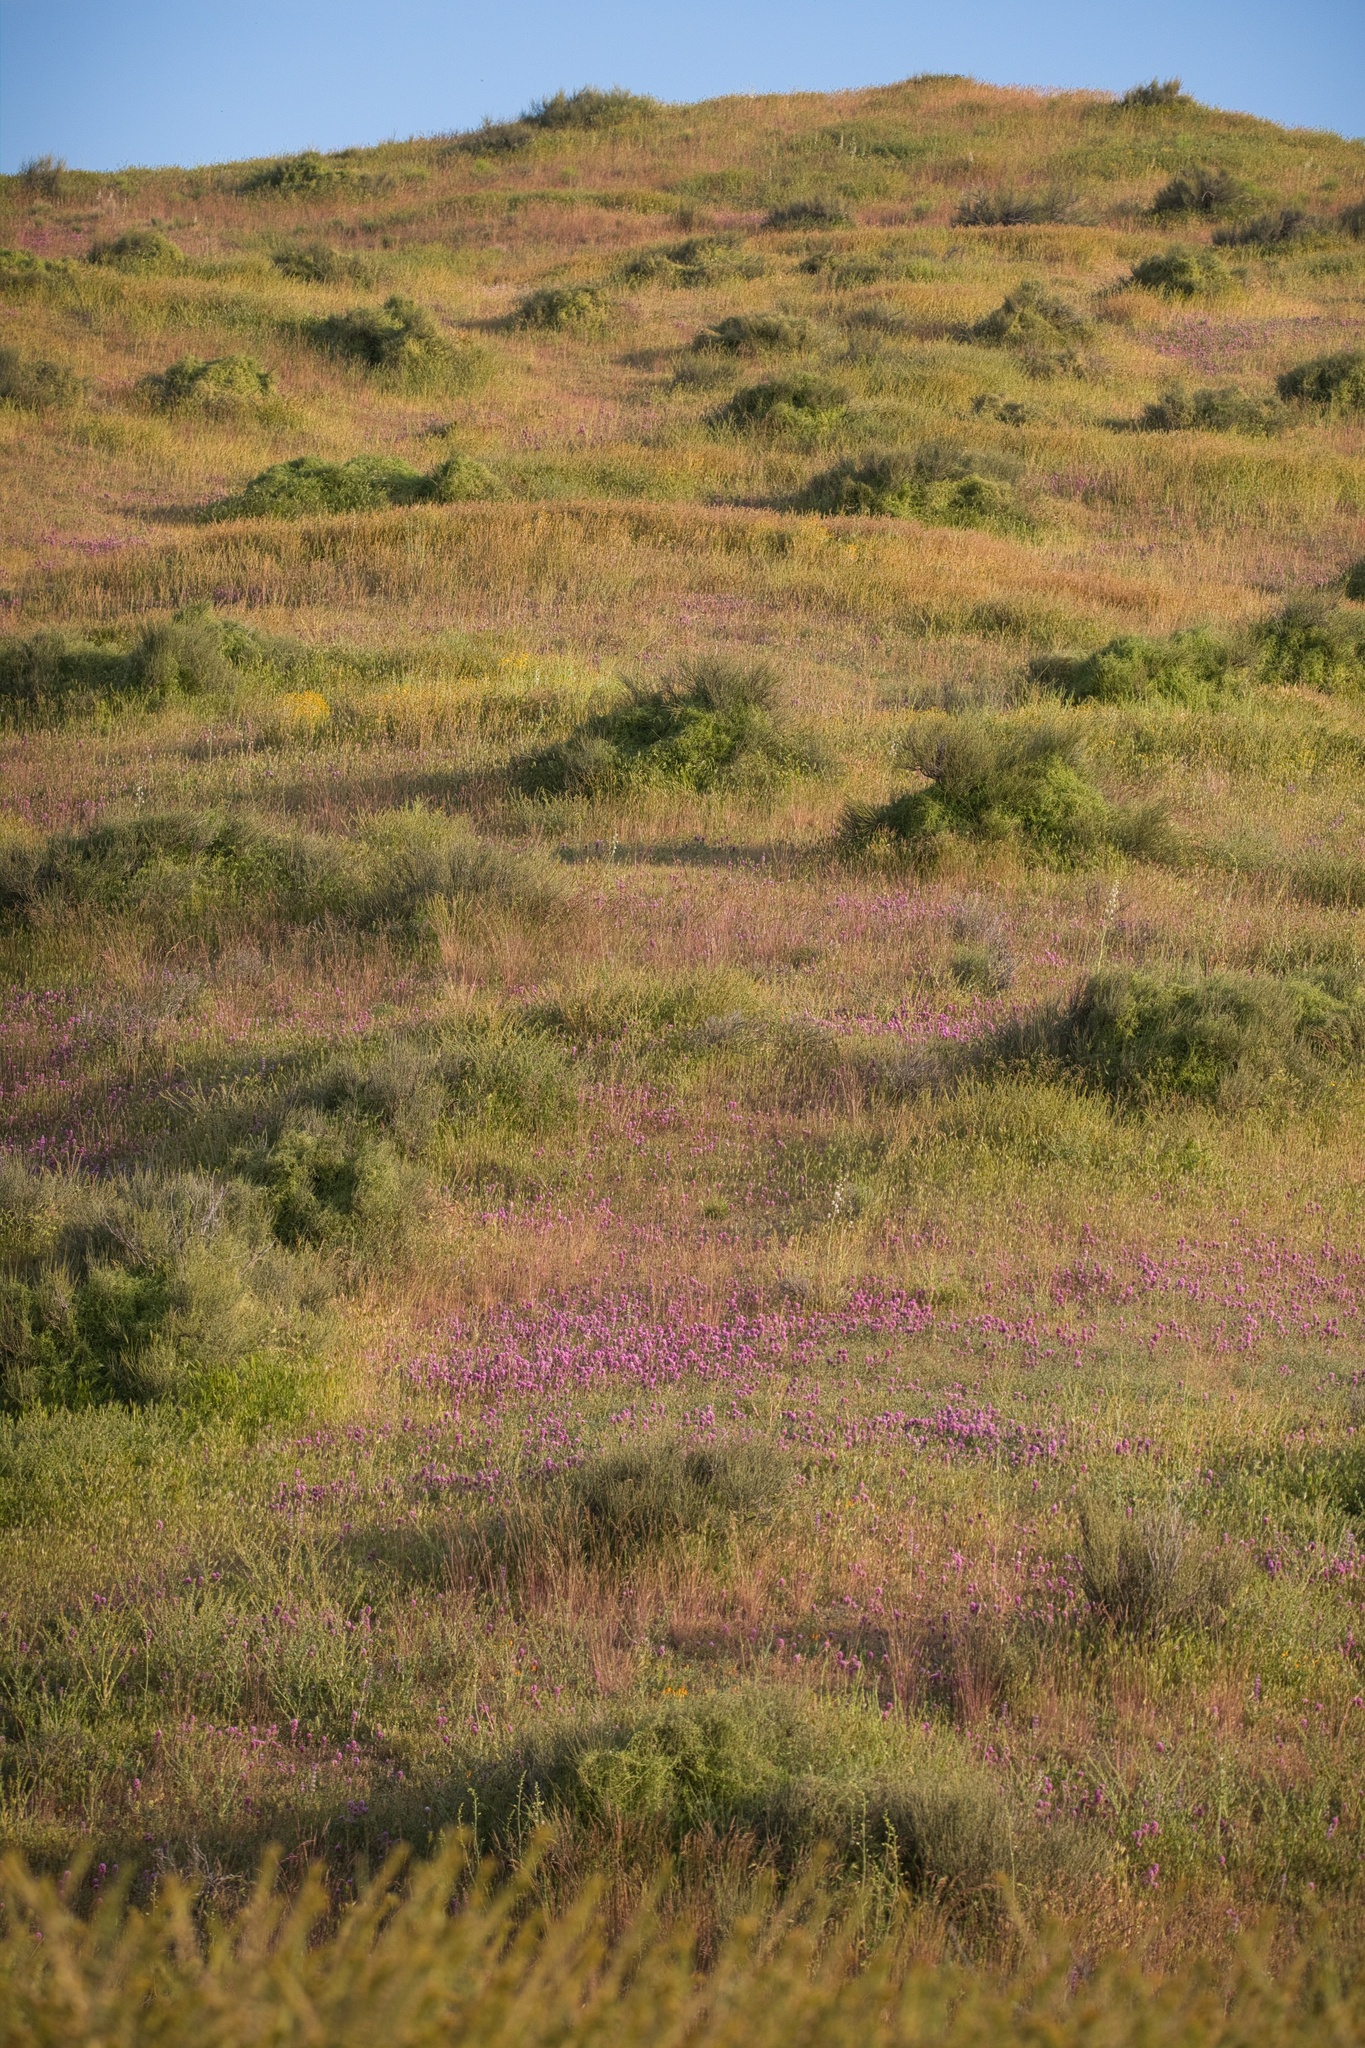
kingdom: Plantae
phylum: Tracheophyta
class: Magnoliopsida
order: Lamiales
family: Orobanchaceae
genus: Castilleja
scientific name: Castilleja exserta
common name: Purple owl-clover
